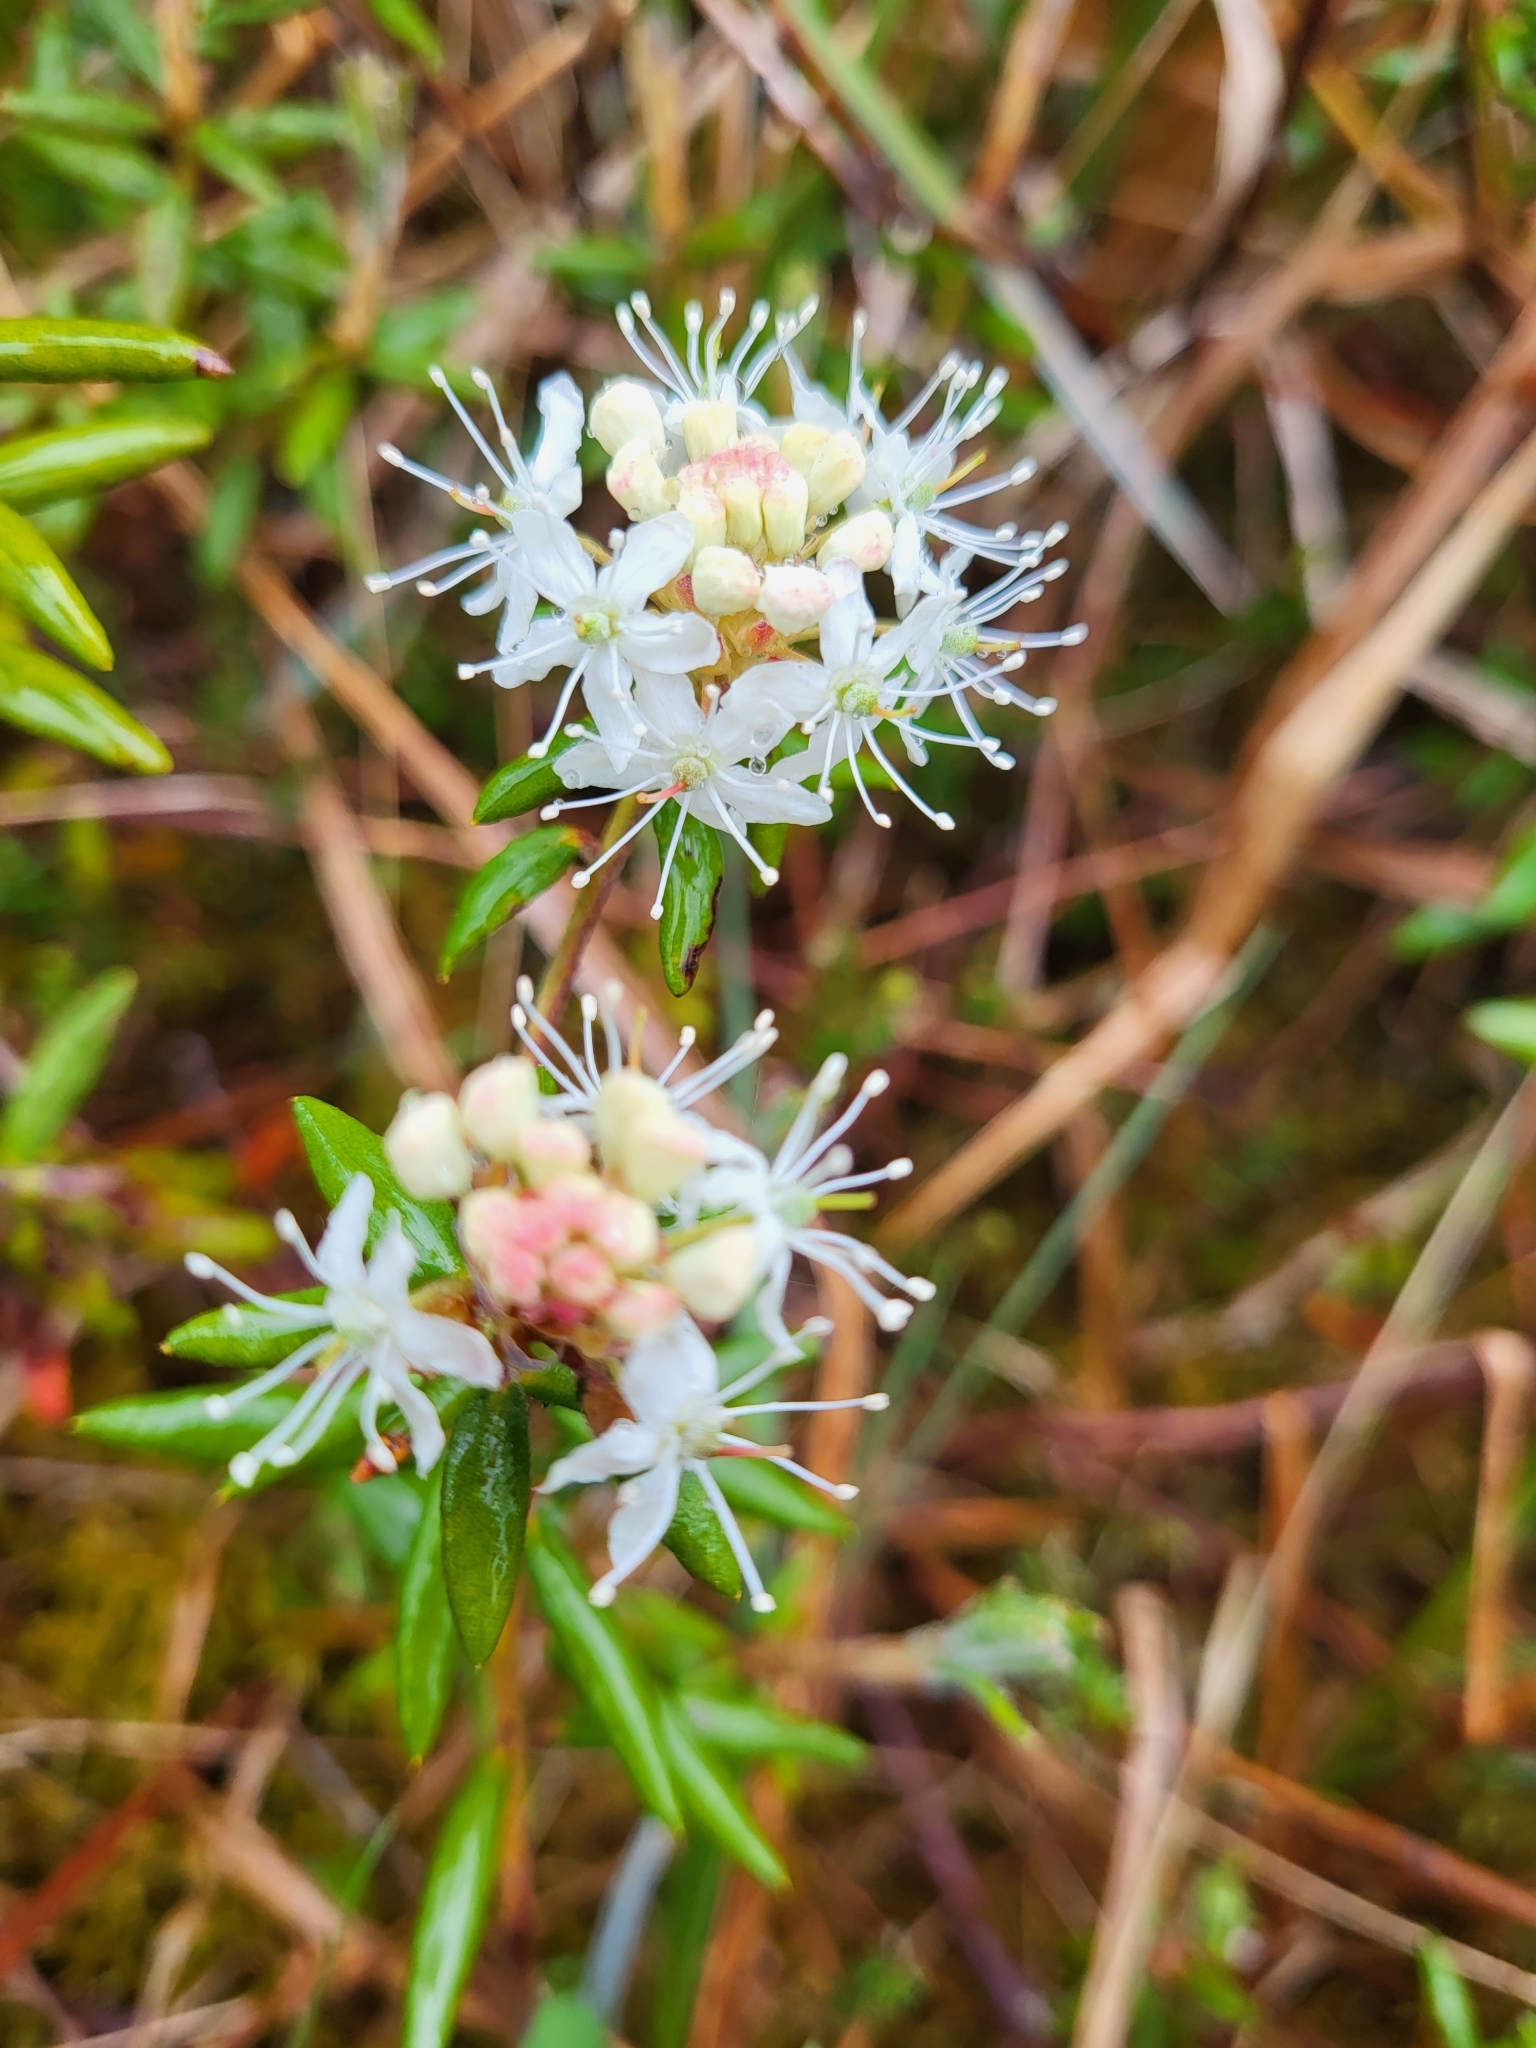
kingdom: Plantae
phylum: Tracheophyta
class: Magnoliopsida
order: Ericales
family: Ericaceae
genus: Rhododendron
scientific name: Rhododendron groenlandicum
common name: Bog labrador tea
